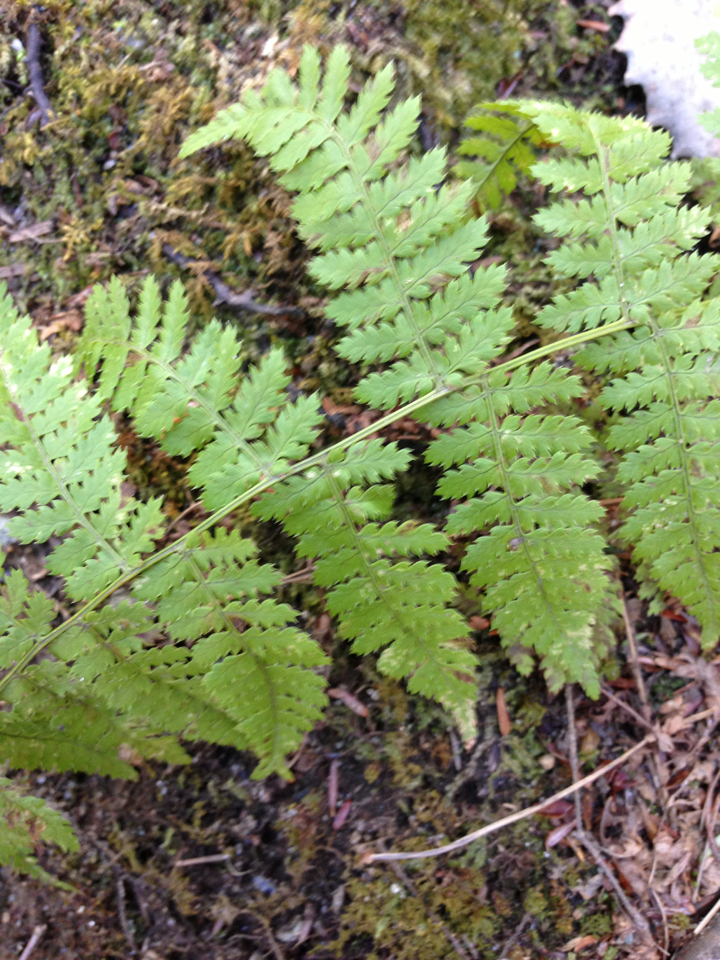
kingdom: Plantae
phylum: Tracheophyta
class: Polypodiopsida
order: Polypodiales
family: Dryopteridaceae
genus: Dryopteris
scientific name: Dryopteris intermedia
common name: Evergreen wood fern
